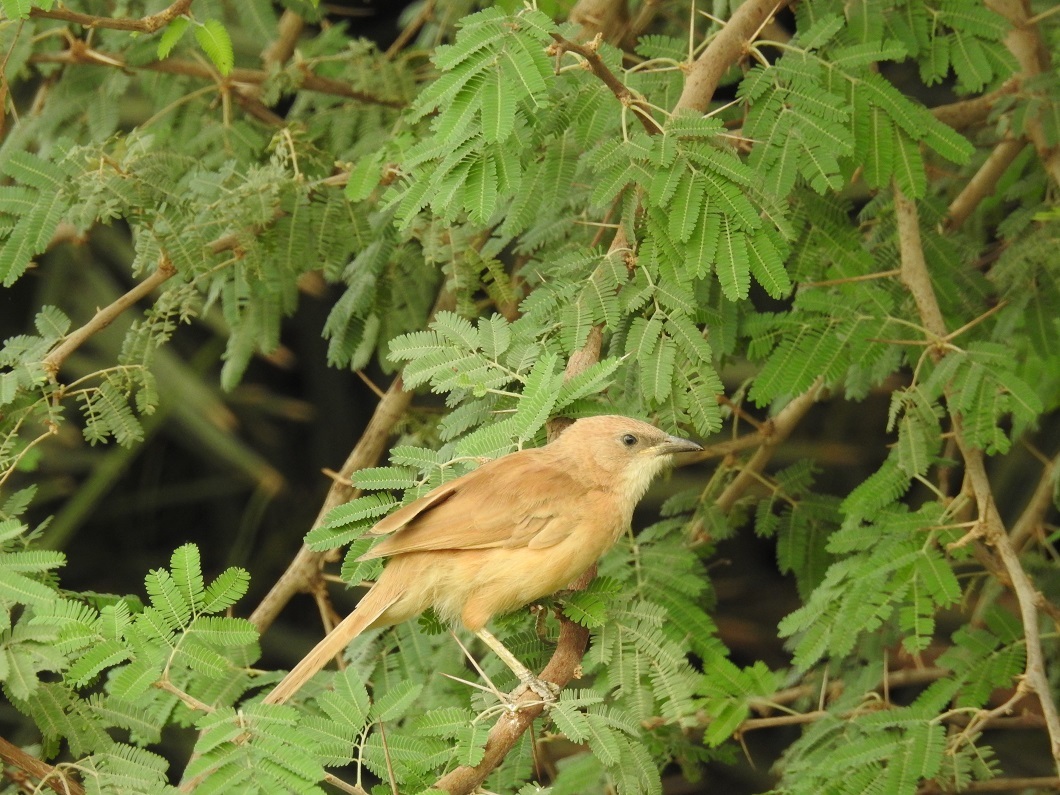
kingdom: Animalia
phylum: Chordata
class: Aves
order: Passeriformes
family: Leiothrichidae
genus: Turdoides
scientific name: Turdoides fulva
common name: Fulvous babbler
